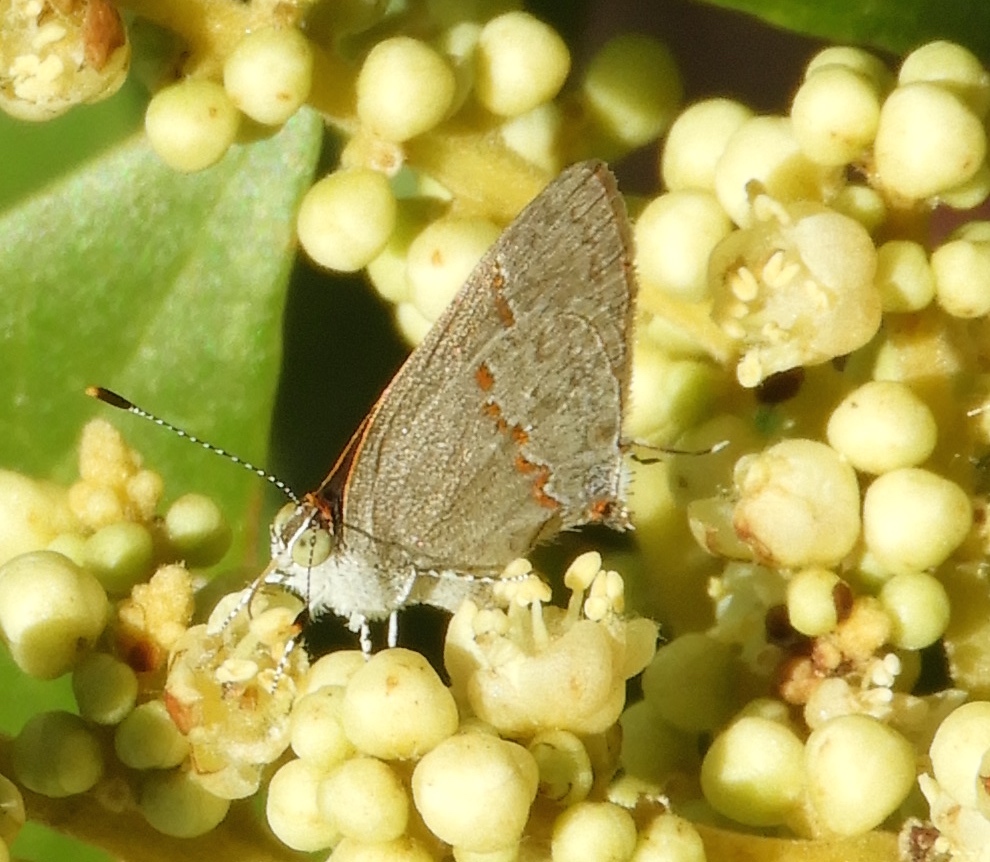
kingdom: Animalia
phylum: Arthropoda
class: Insecta
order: Lepidoptera
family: Lycaenidae
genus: Ministrymon
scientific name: Ministrymon janevicroy
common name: Pebbly ministreak
